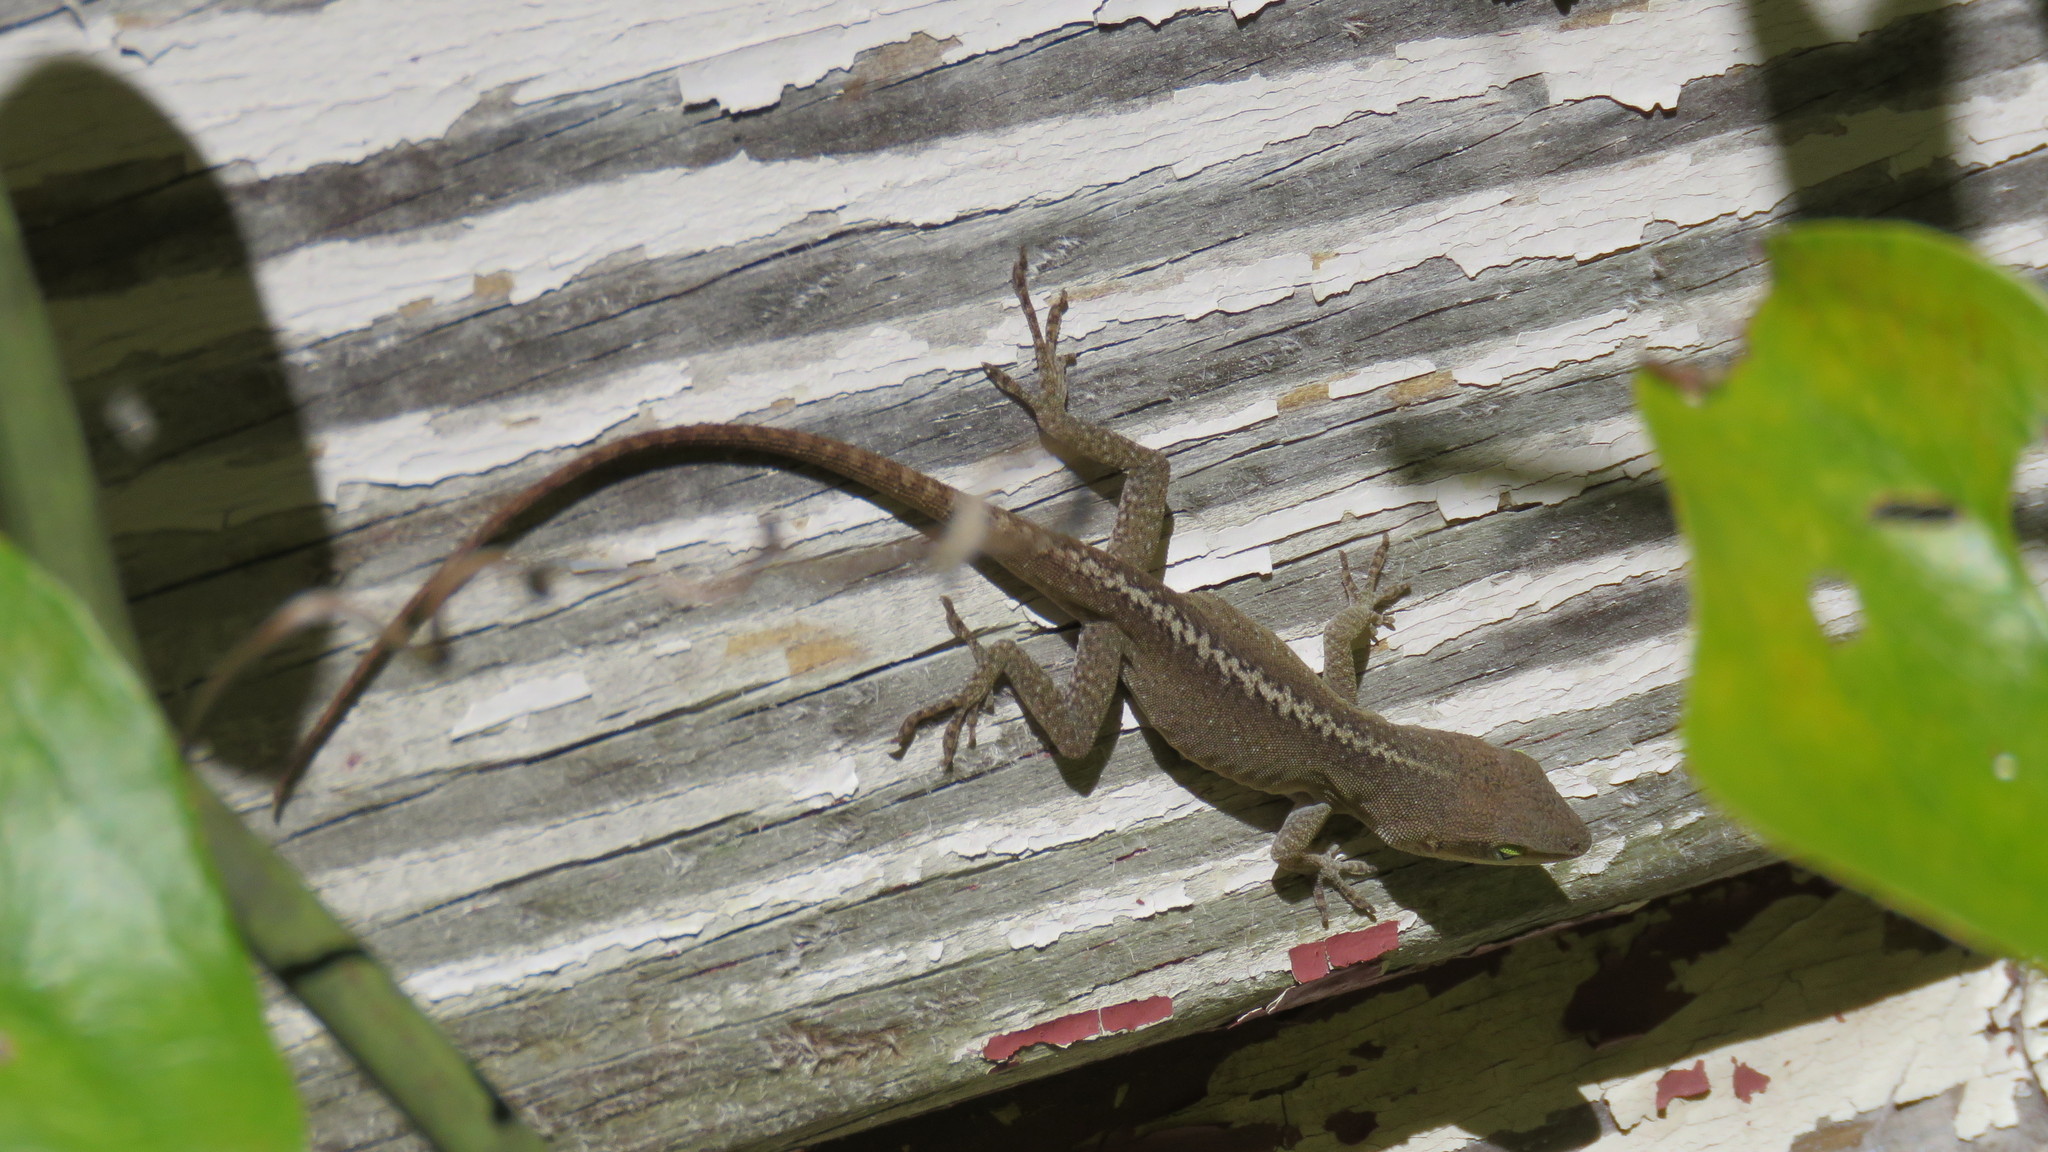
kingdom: Animalia
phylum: Chordata
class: Squamata
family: Dactyloidae
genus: Anolis
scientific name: Anolis carolinensis
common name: Green anole
